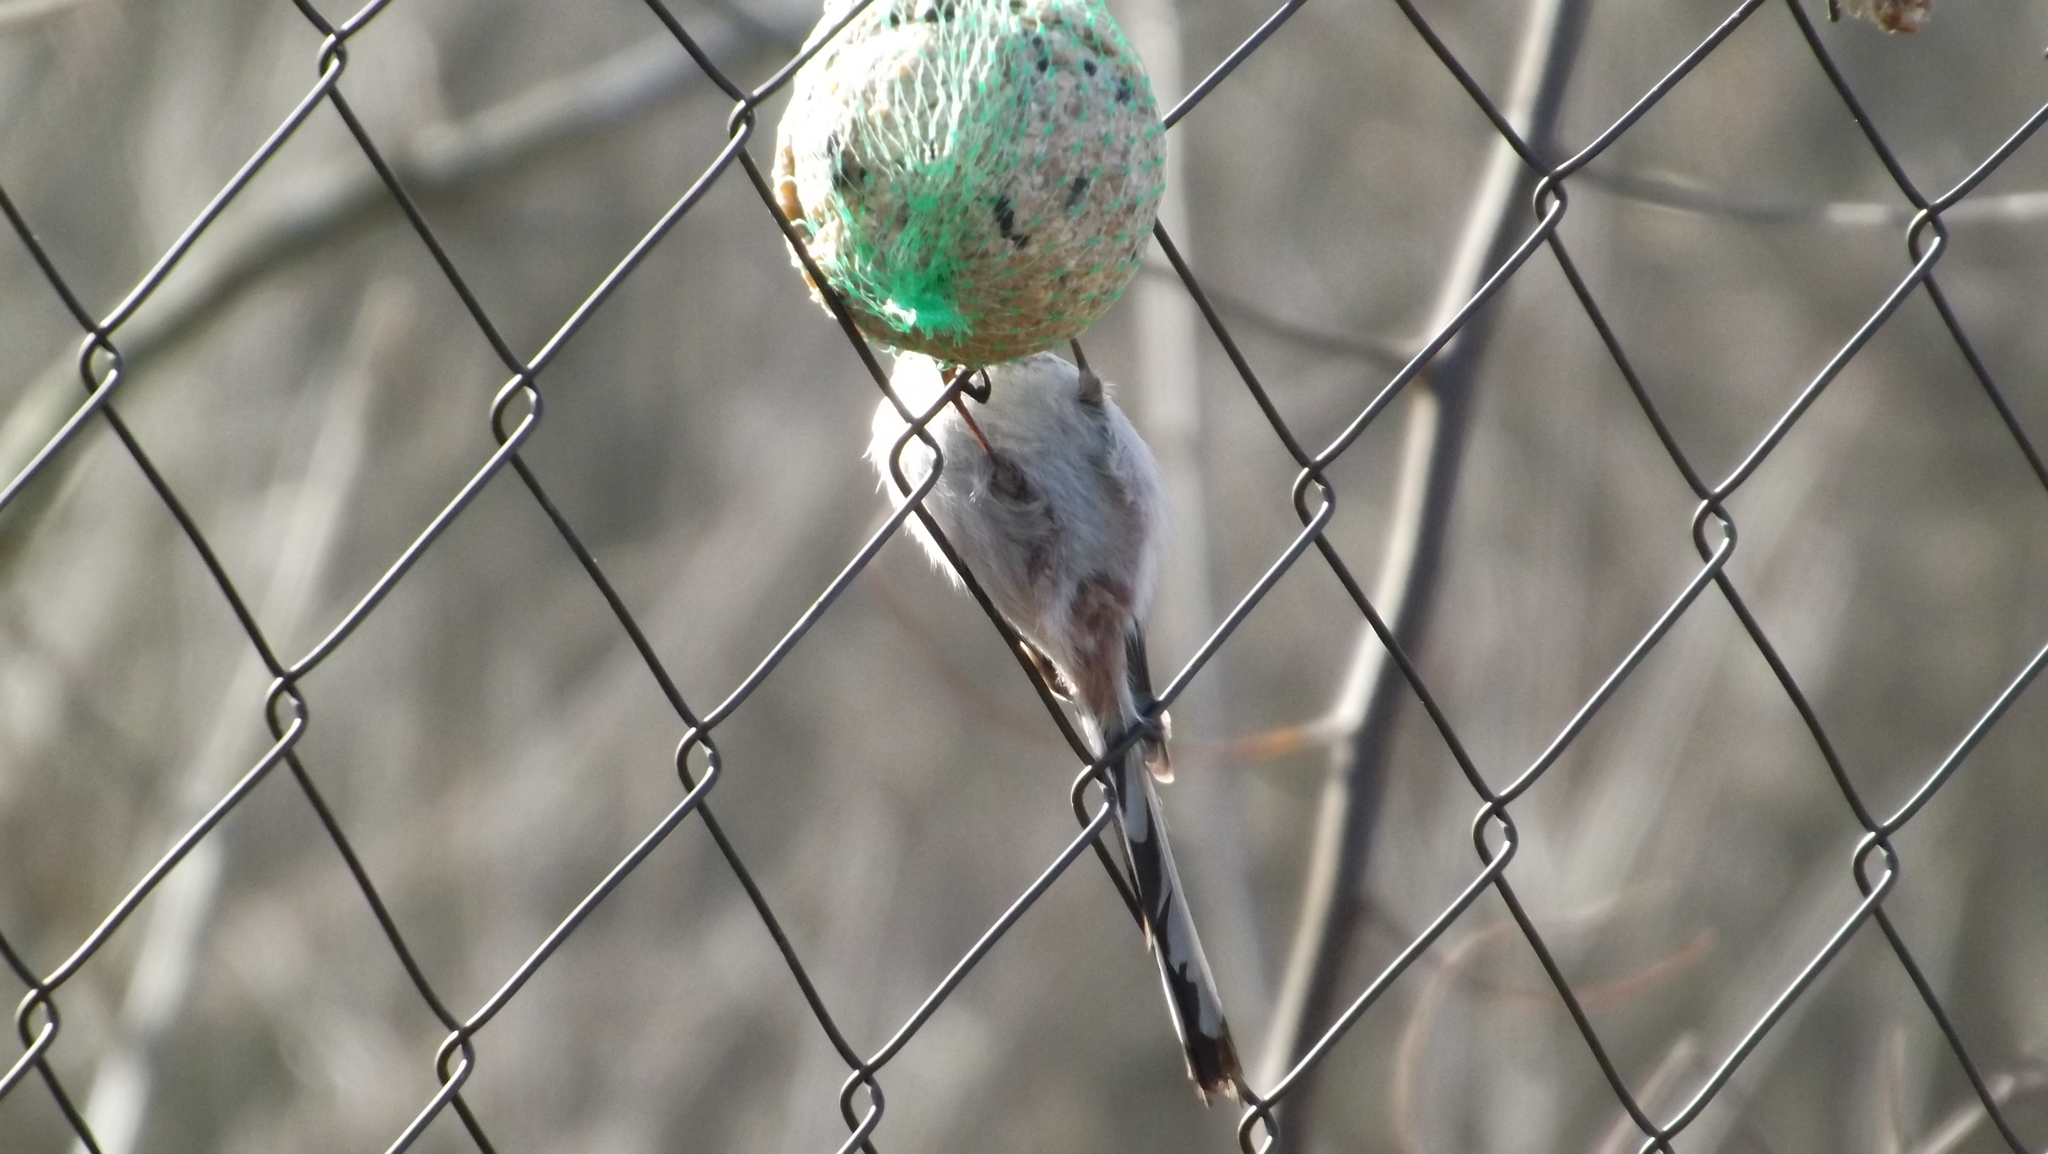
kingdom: Animalia
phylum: Chordata
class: Aves
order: Passeriformes
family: Aegithalidae
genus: Aegithalos
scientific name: Aegithalos caudatus
